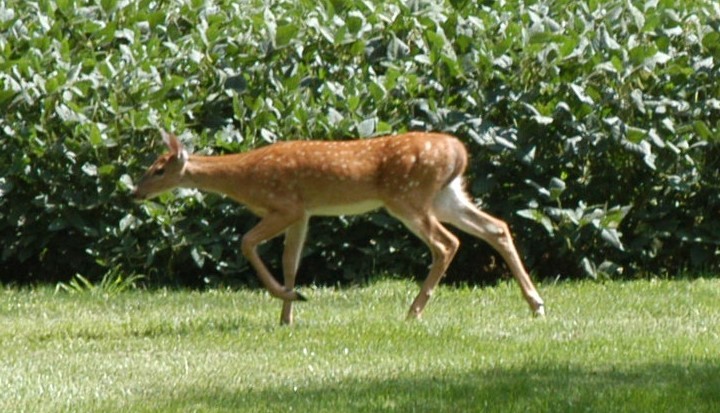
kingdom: Animalia
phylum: Chordata
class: Mammalia
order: Artiodactyla
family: Cervidae
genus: Odocoileus
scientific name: Odocoileus virginianus
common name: White-tailed deer
